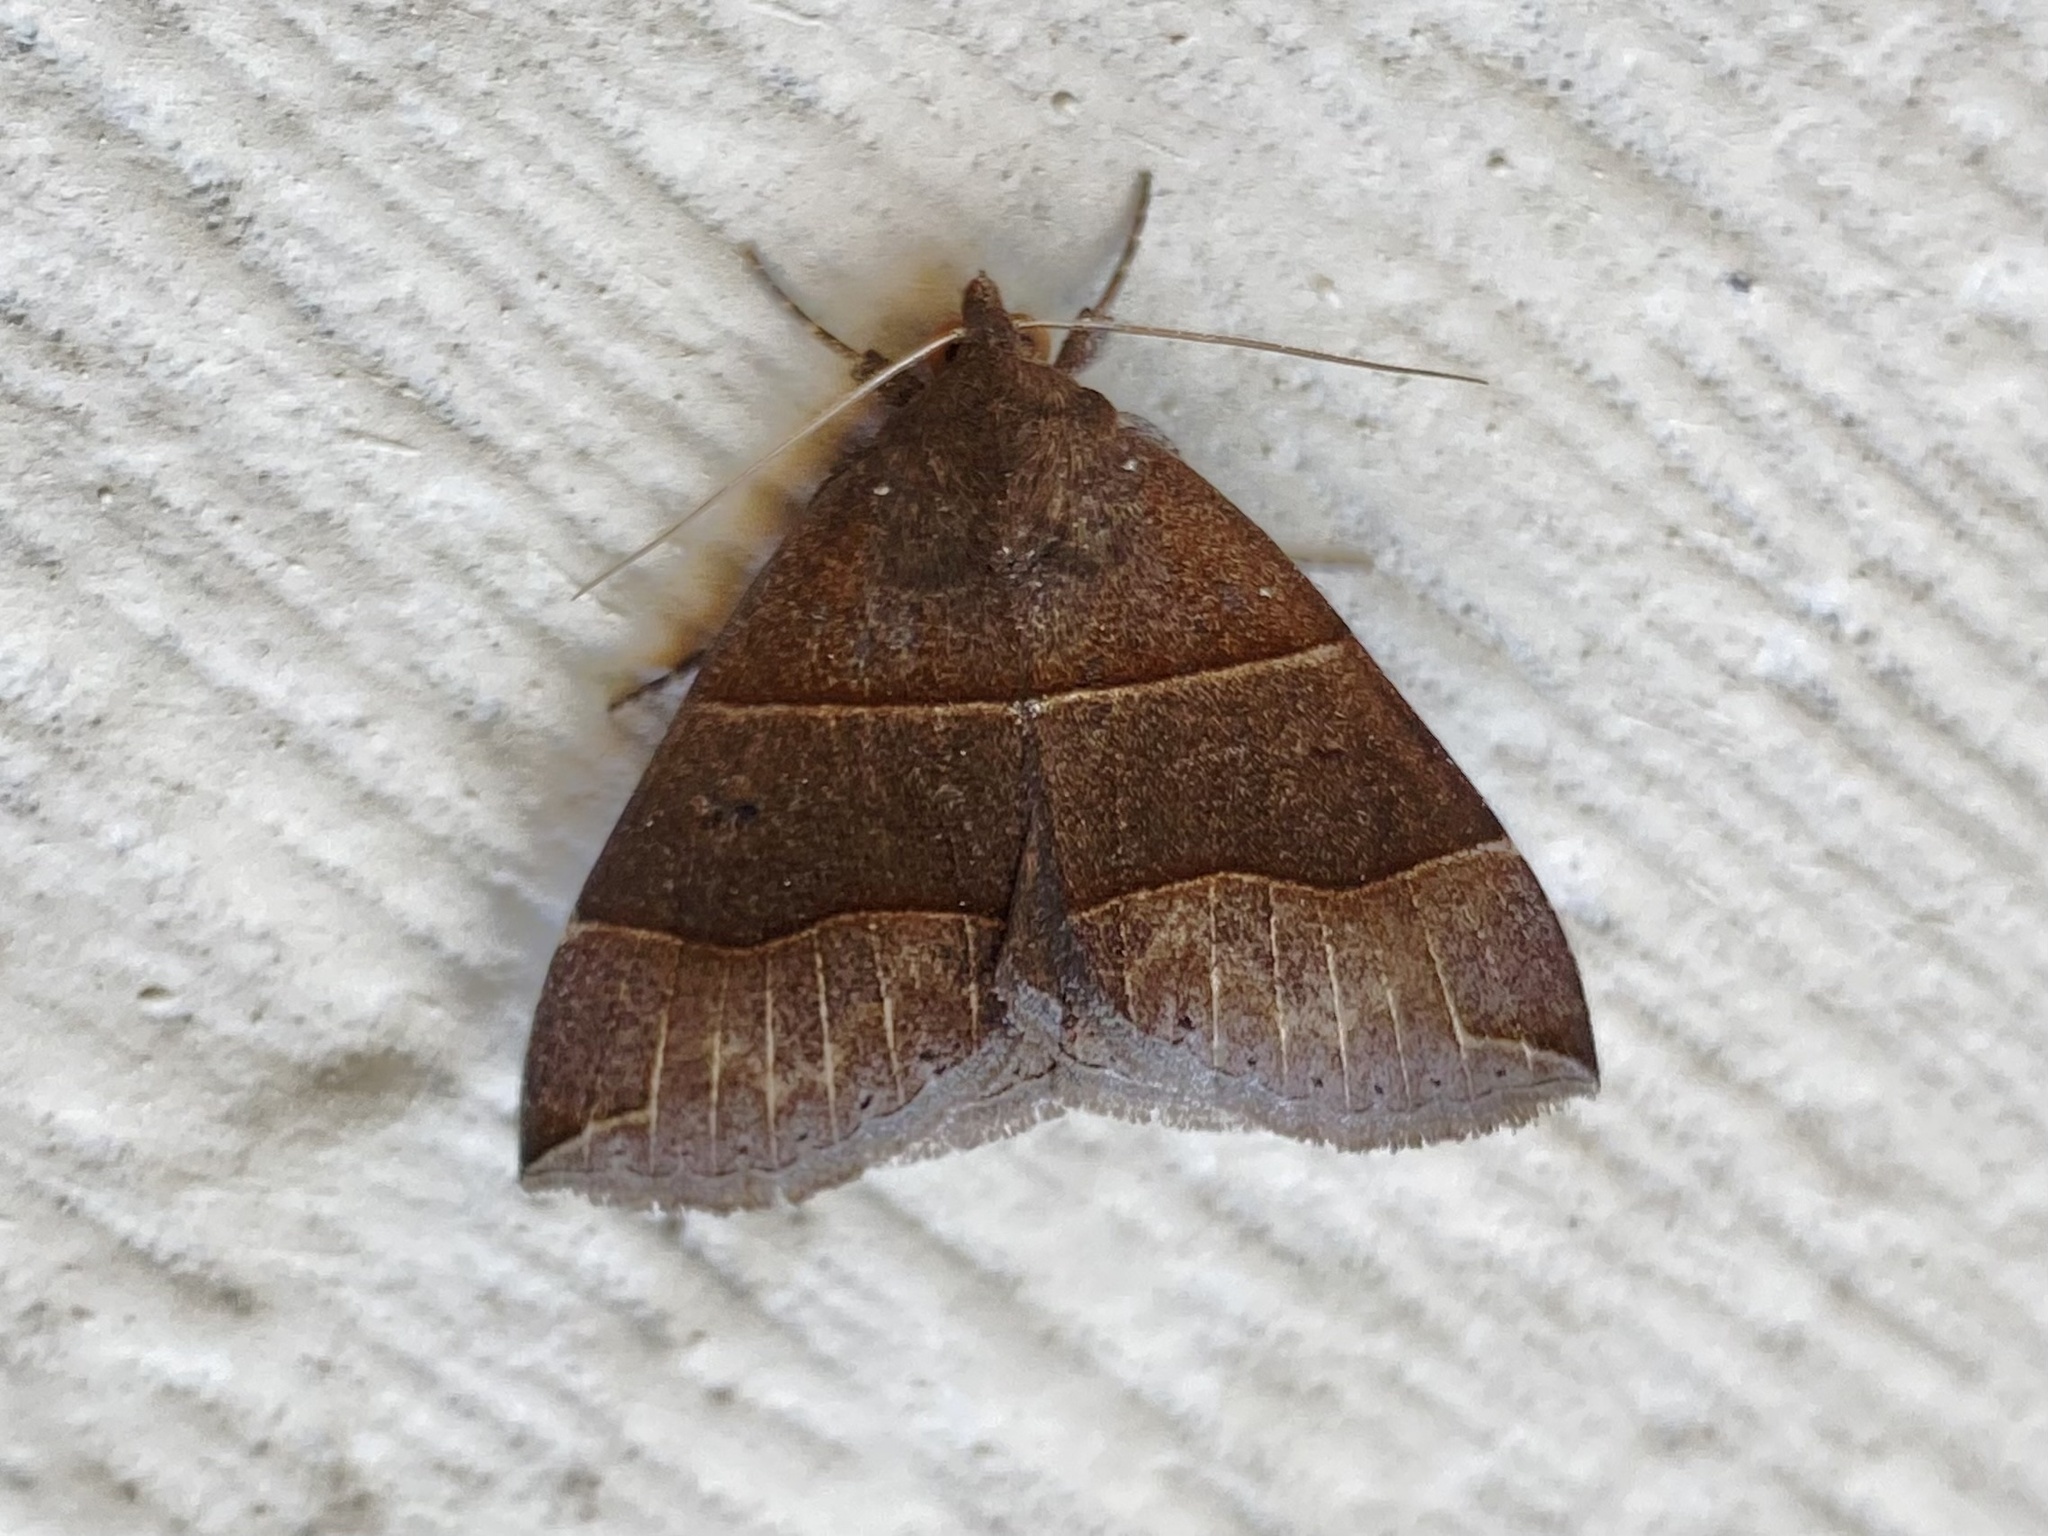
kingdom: Animalia
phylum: Arthropoda
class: Insecta
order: Lepidoptera
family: Erebidae
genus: Parallelia
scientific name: Parallelia bistriaris
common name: Maple looper moth
